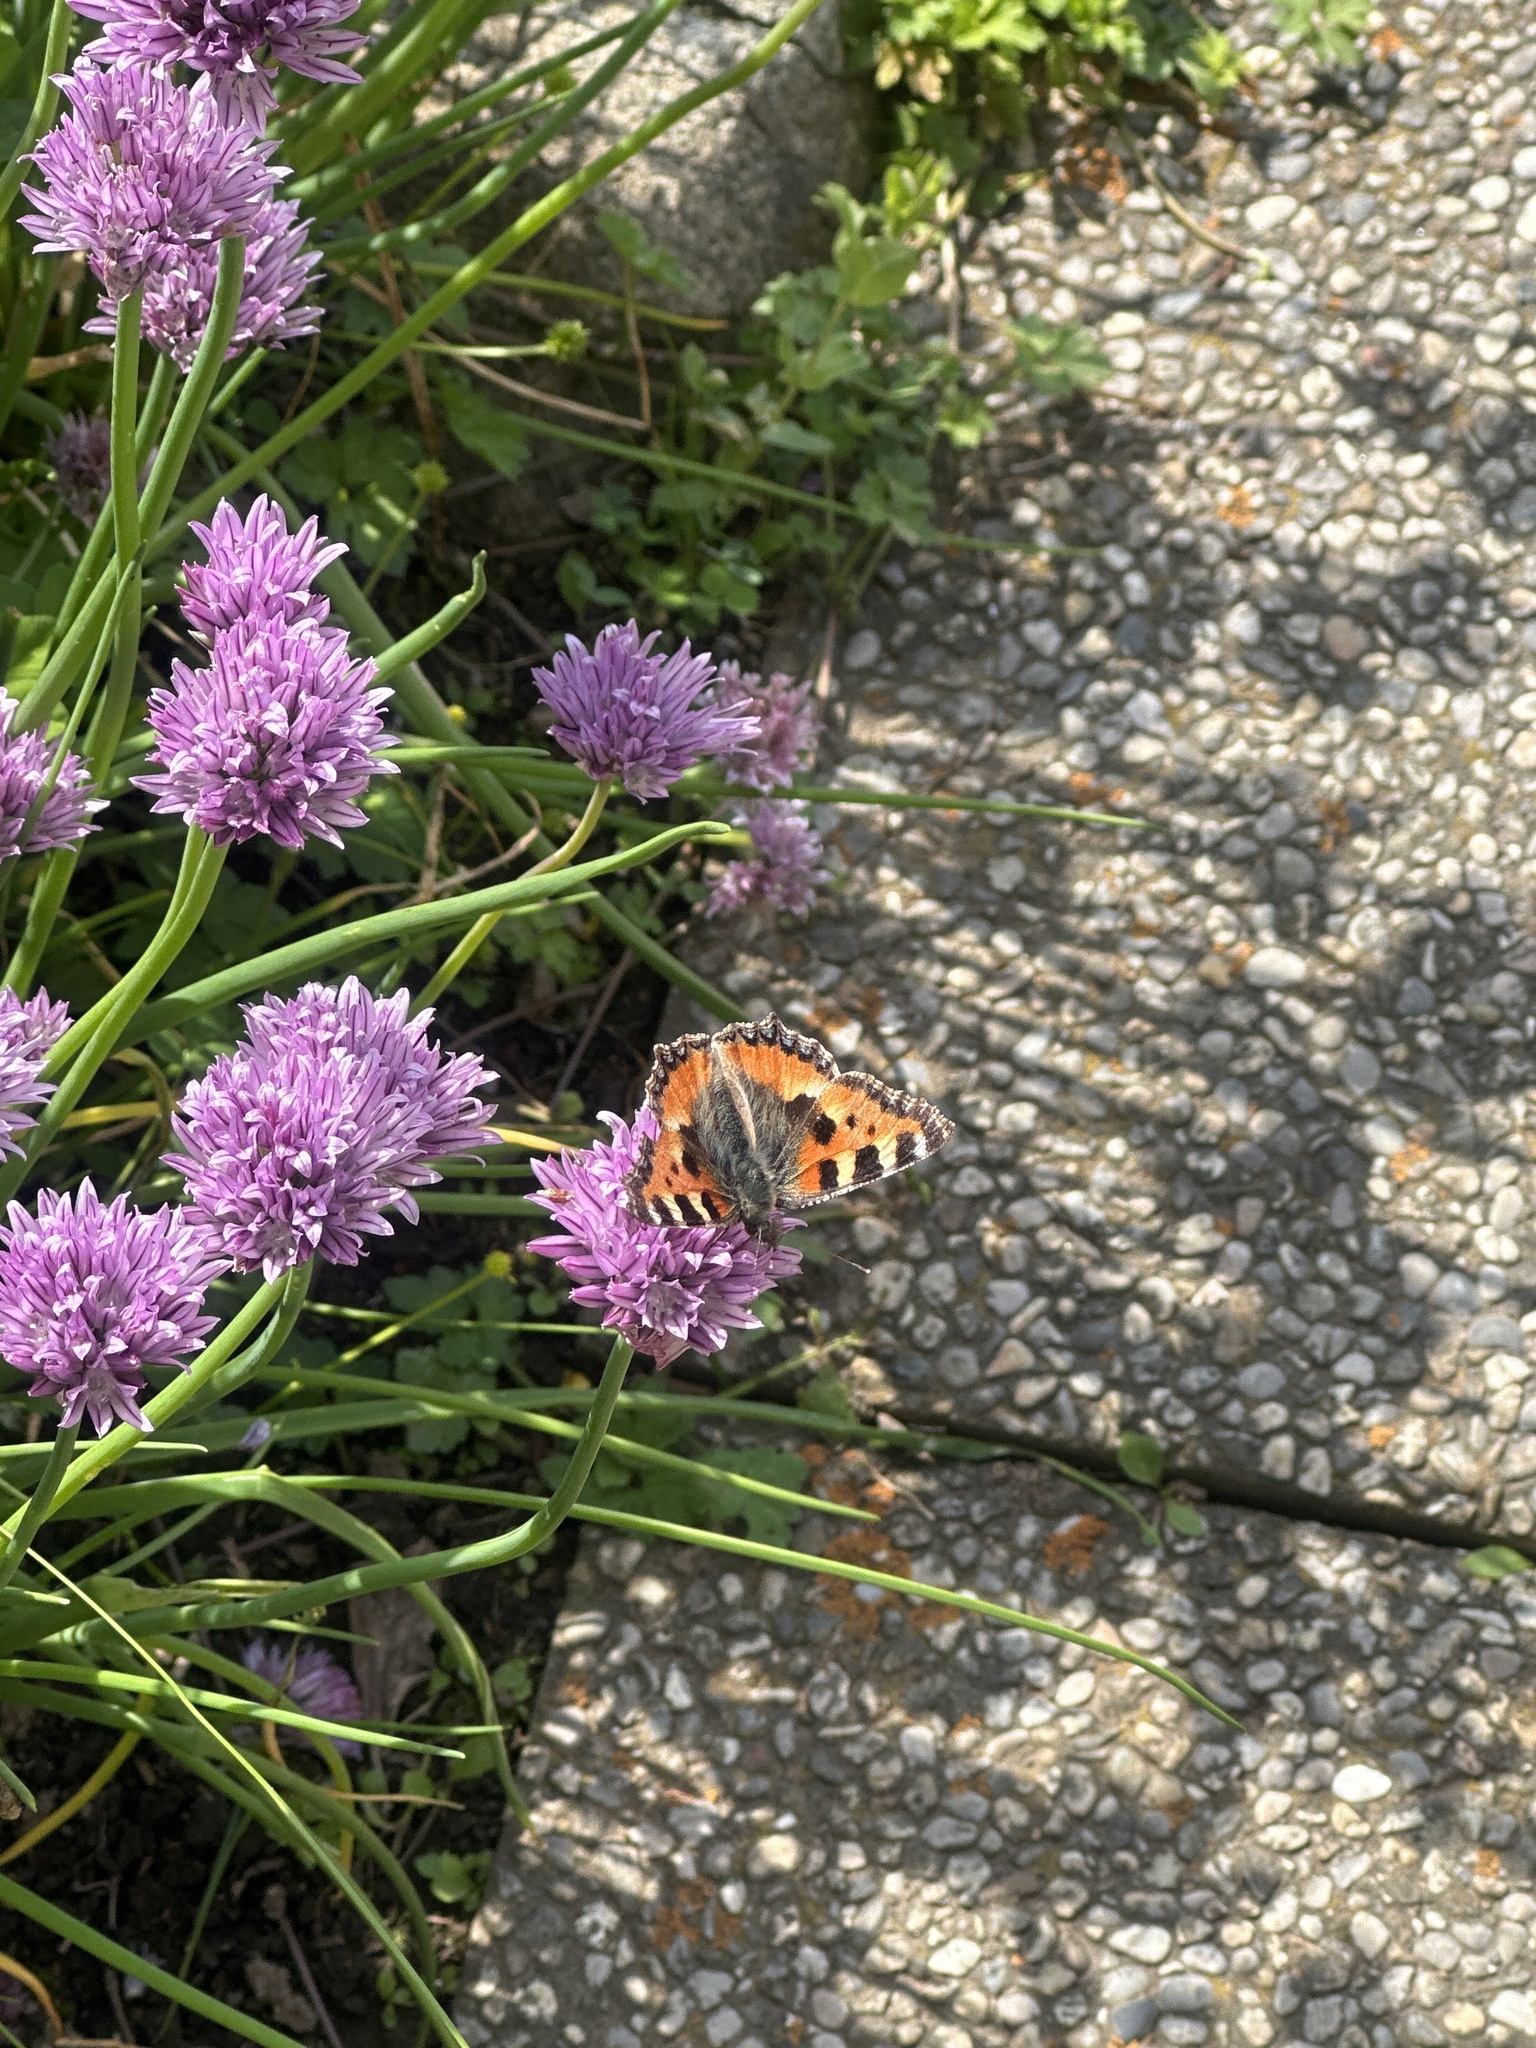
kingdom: Animalia
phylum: Arthropoda
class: Insecta
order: Lepidoptera
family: Nymphalidae
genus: Aglais
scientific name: Aglais urticae
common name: Small tortoiseshell
